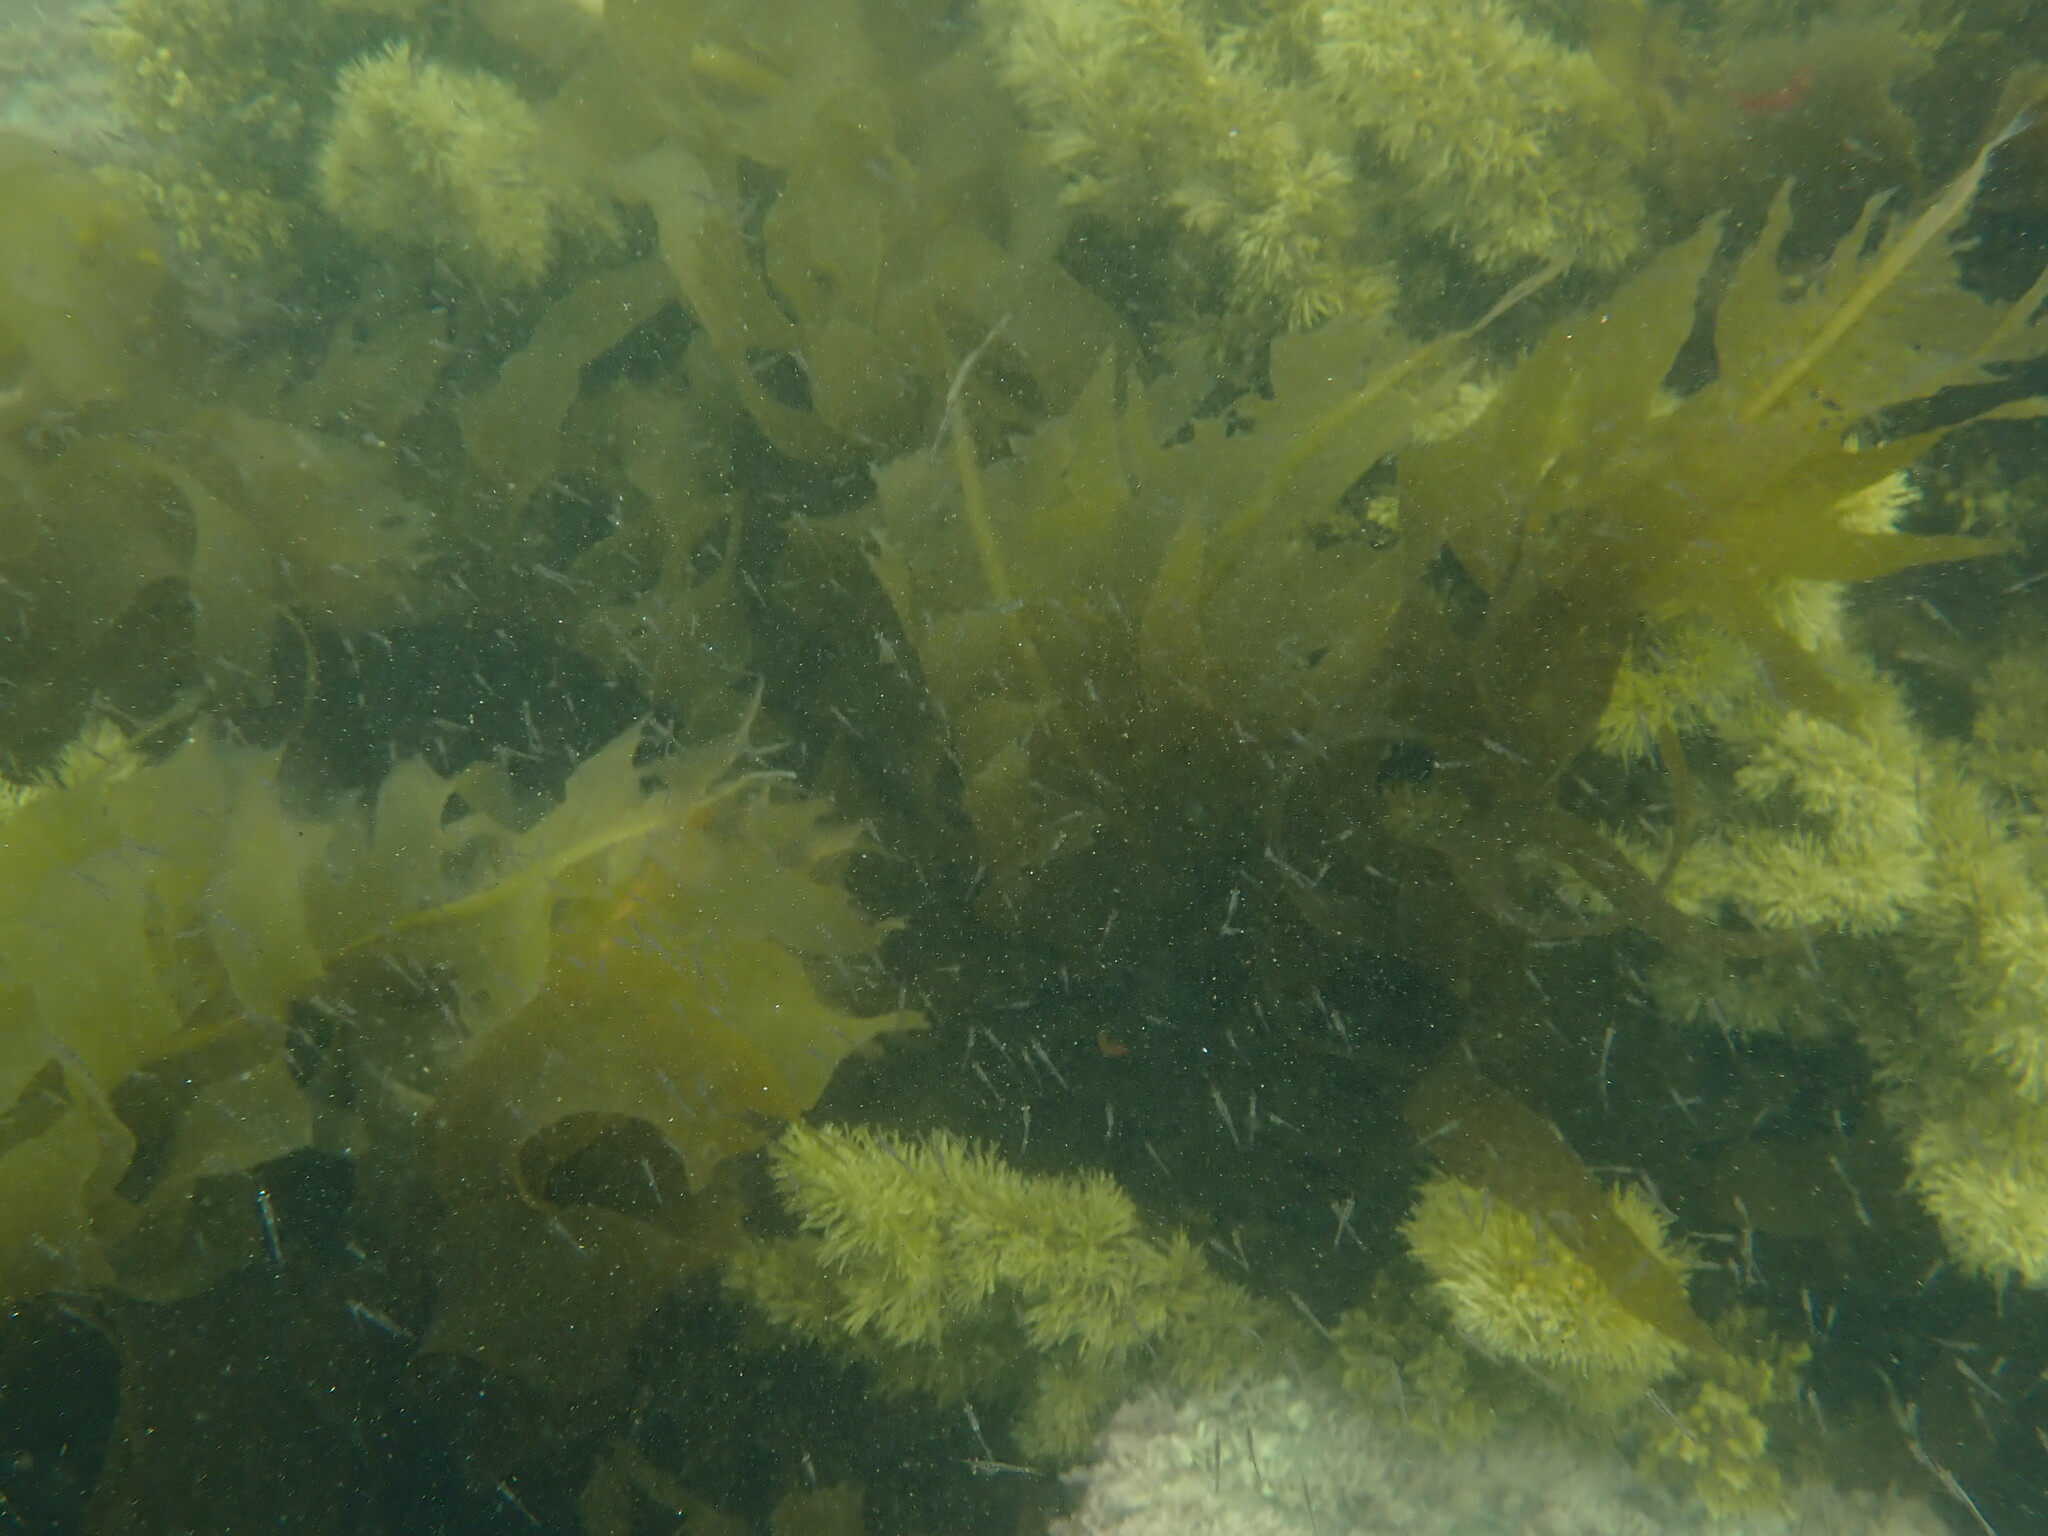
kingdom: Chromista
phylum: Ochrophyta
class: Phaeophyceae
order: Laminariales
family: Alariaceae
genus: Undaria
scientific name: Undaria pinnatifida
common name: Asian kelp
